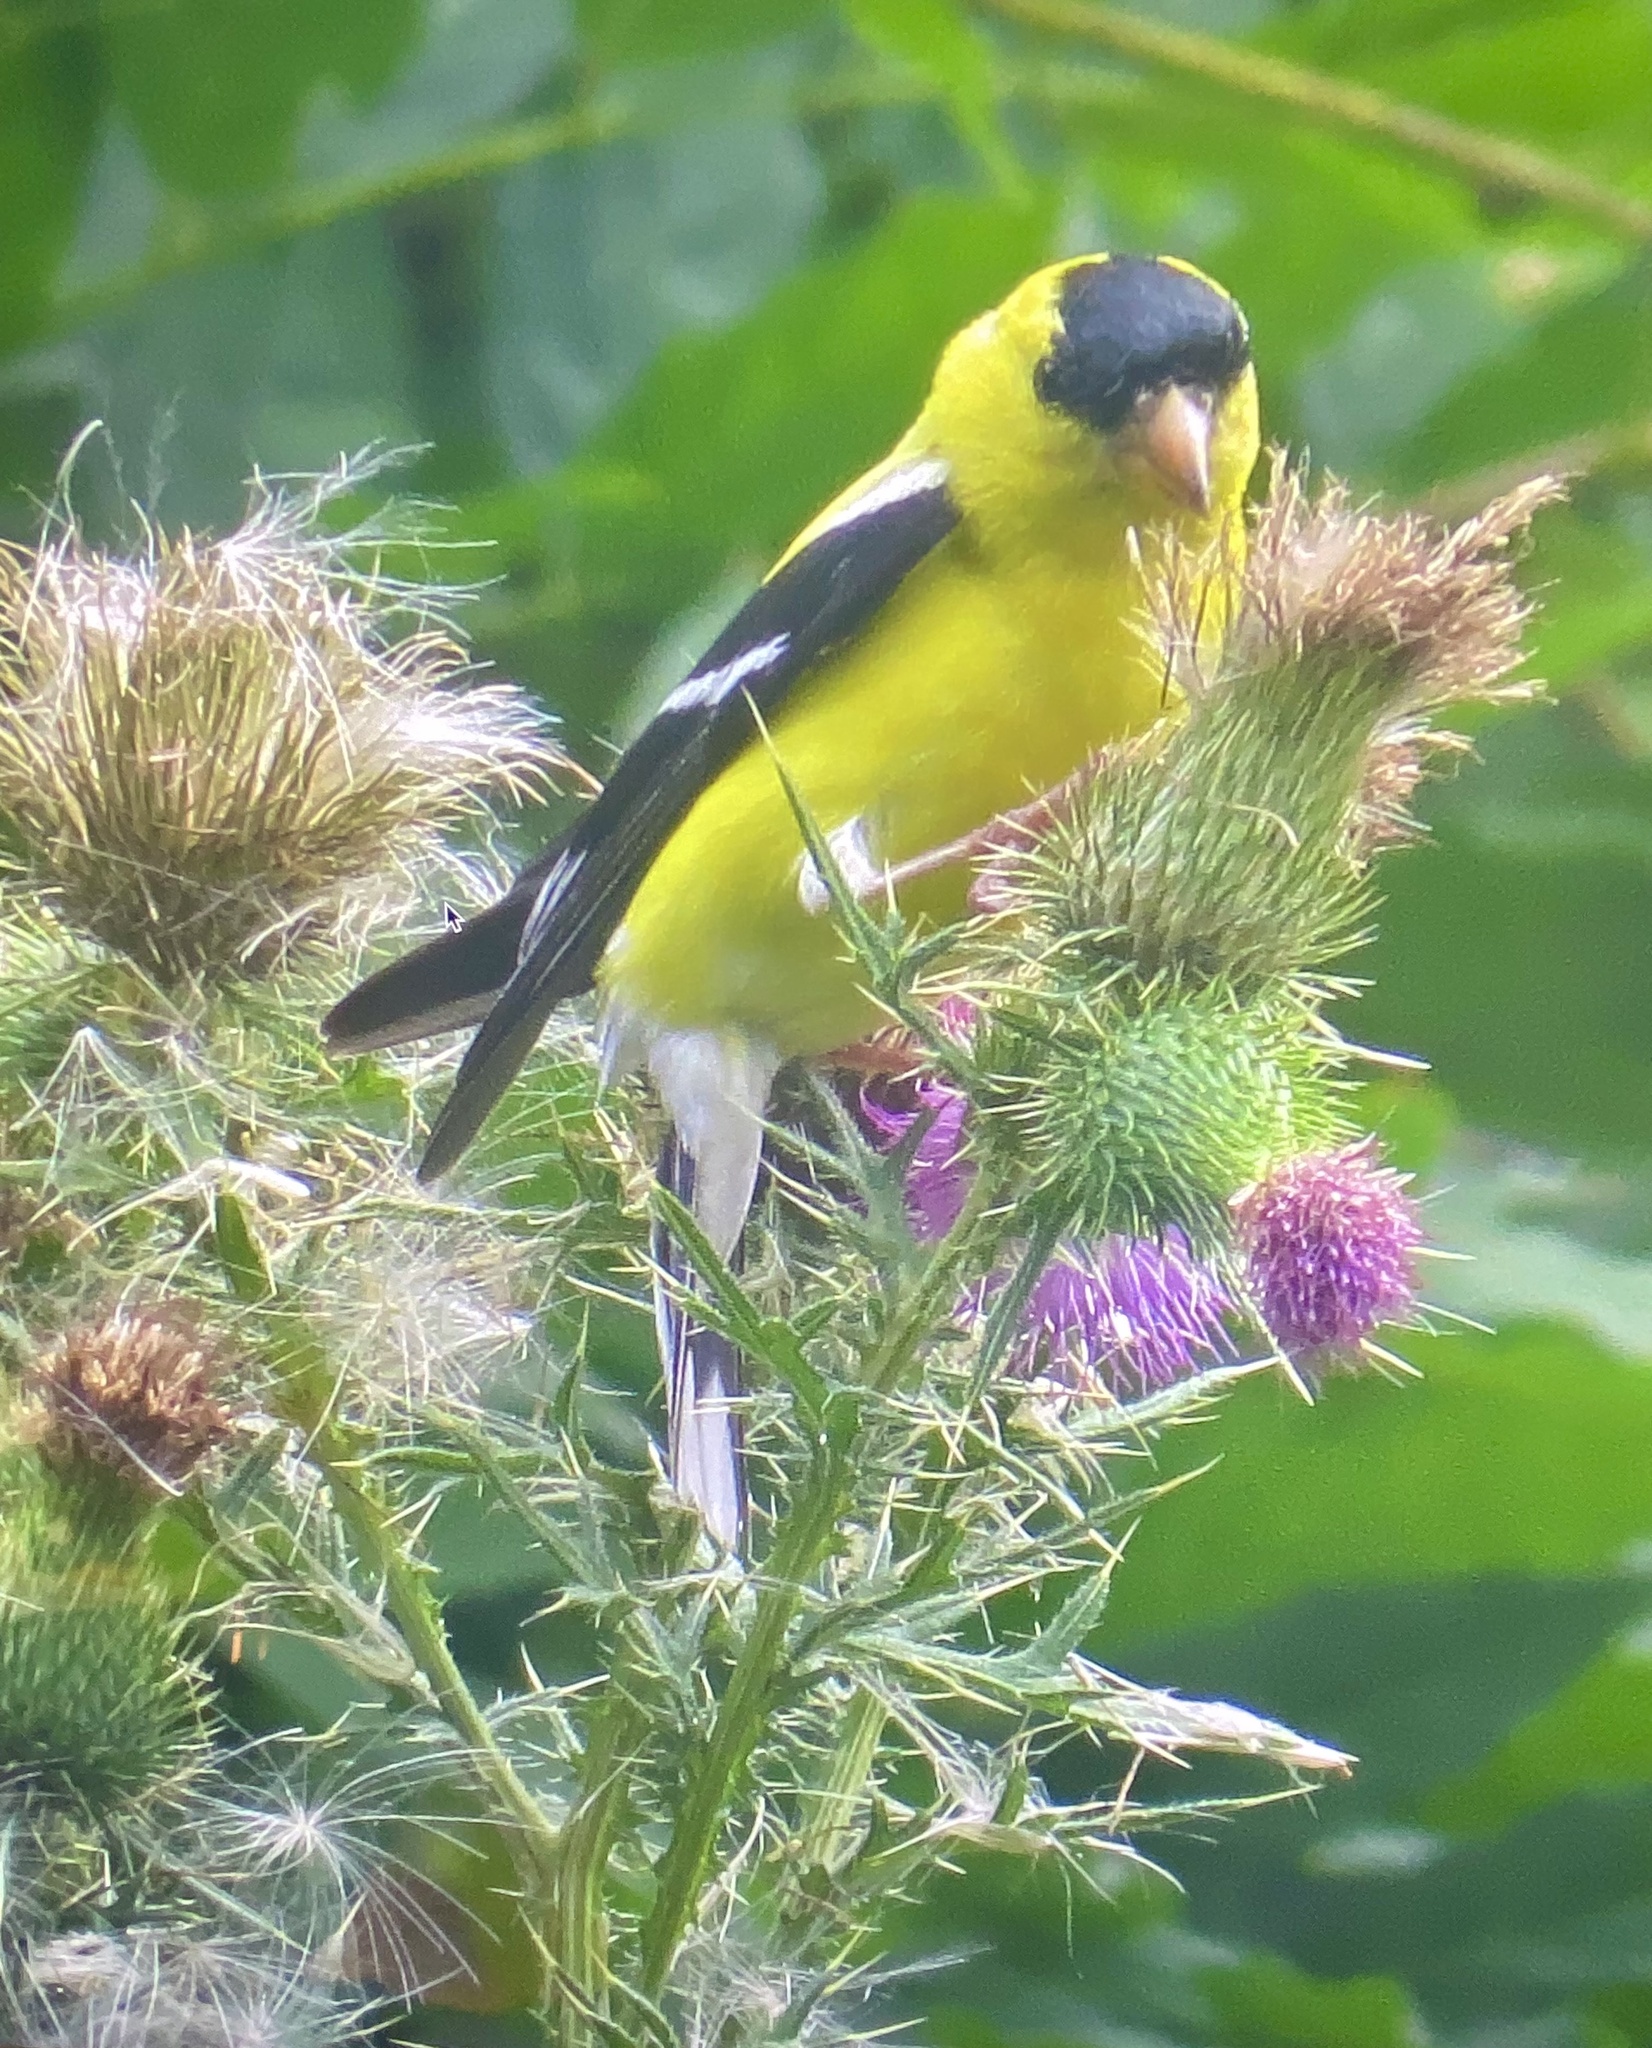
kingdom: Animalia
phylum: Chordata
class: Aves
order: Passeriformes
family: Fringillidae
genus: Spinus
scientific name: Spinus tristis
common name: American goldfinch
